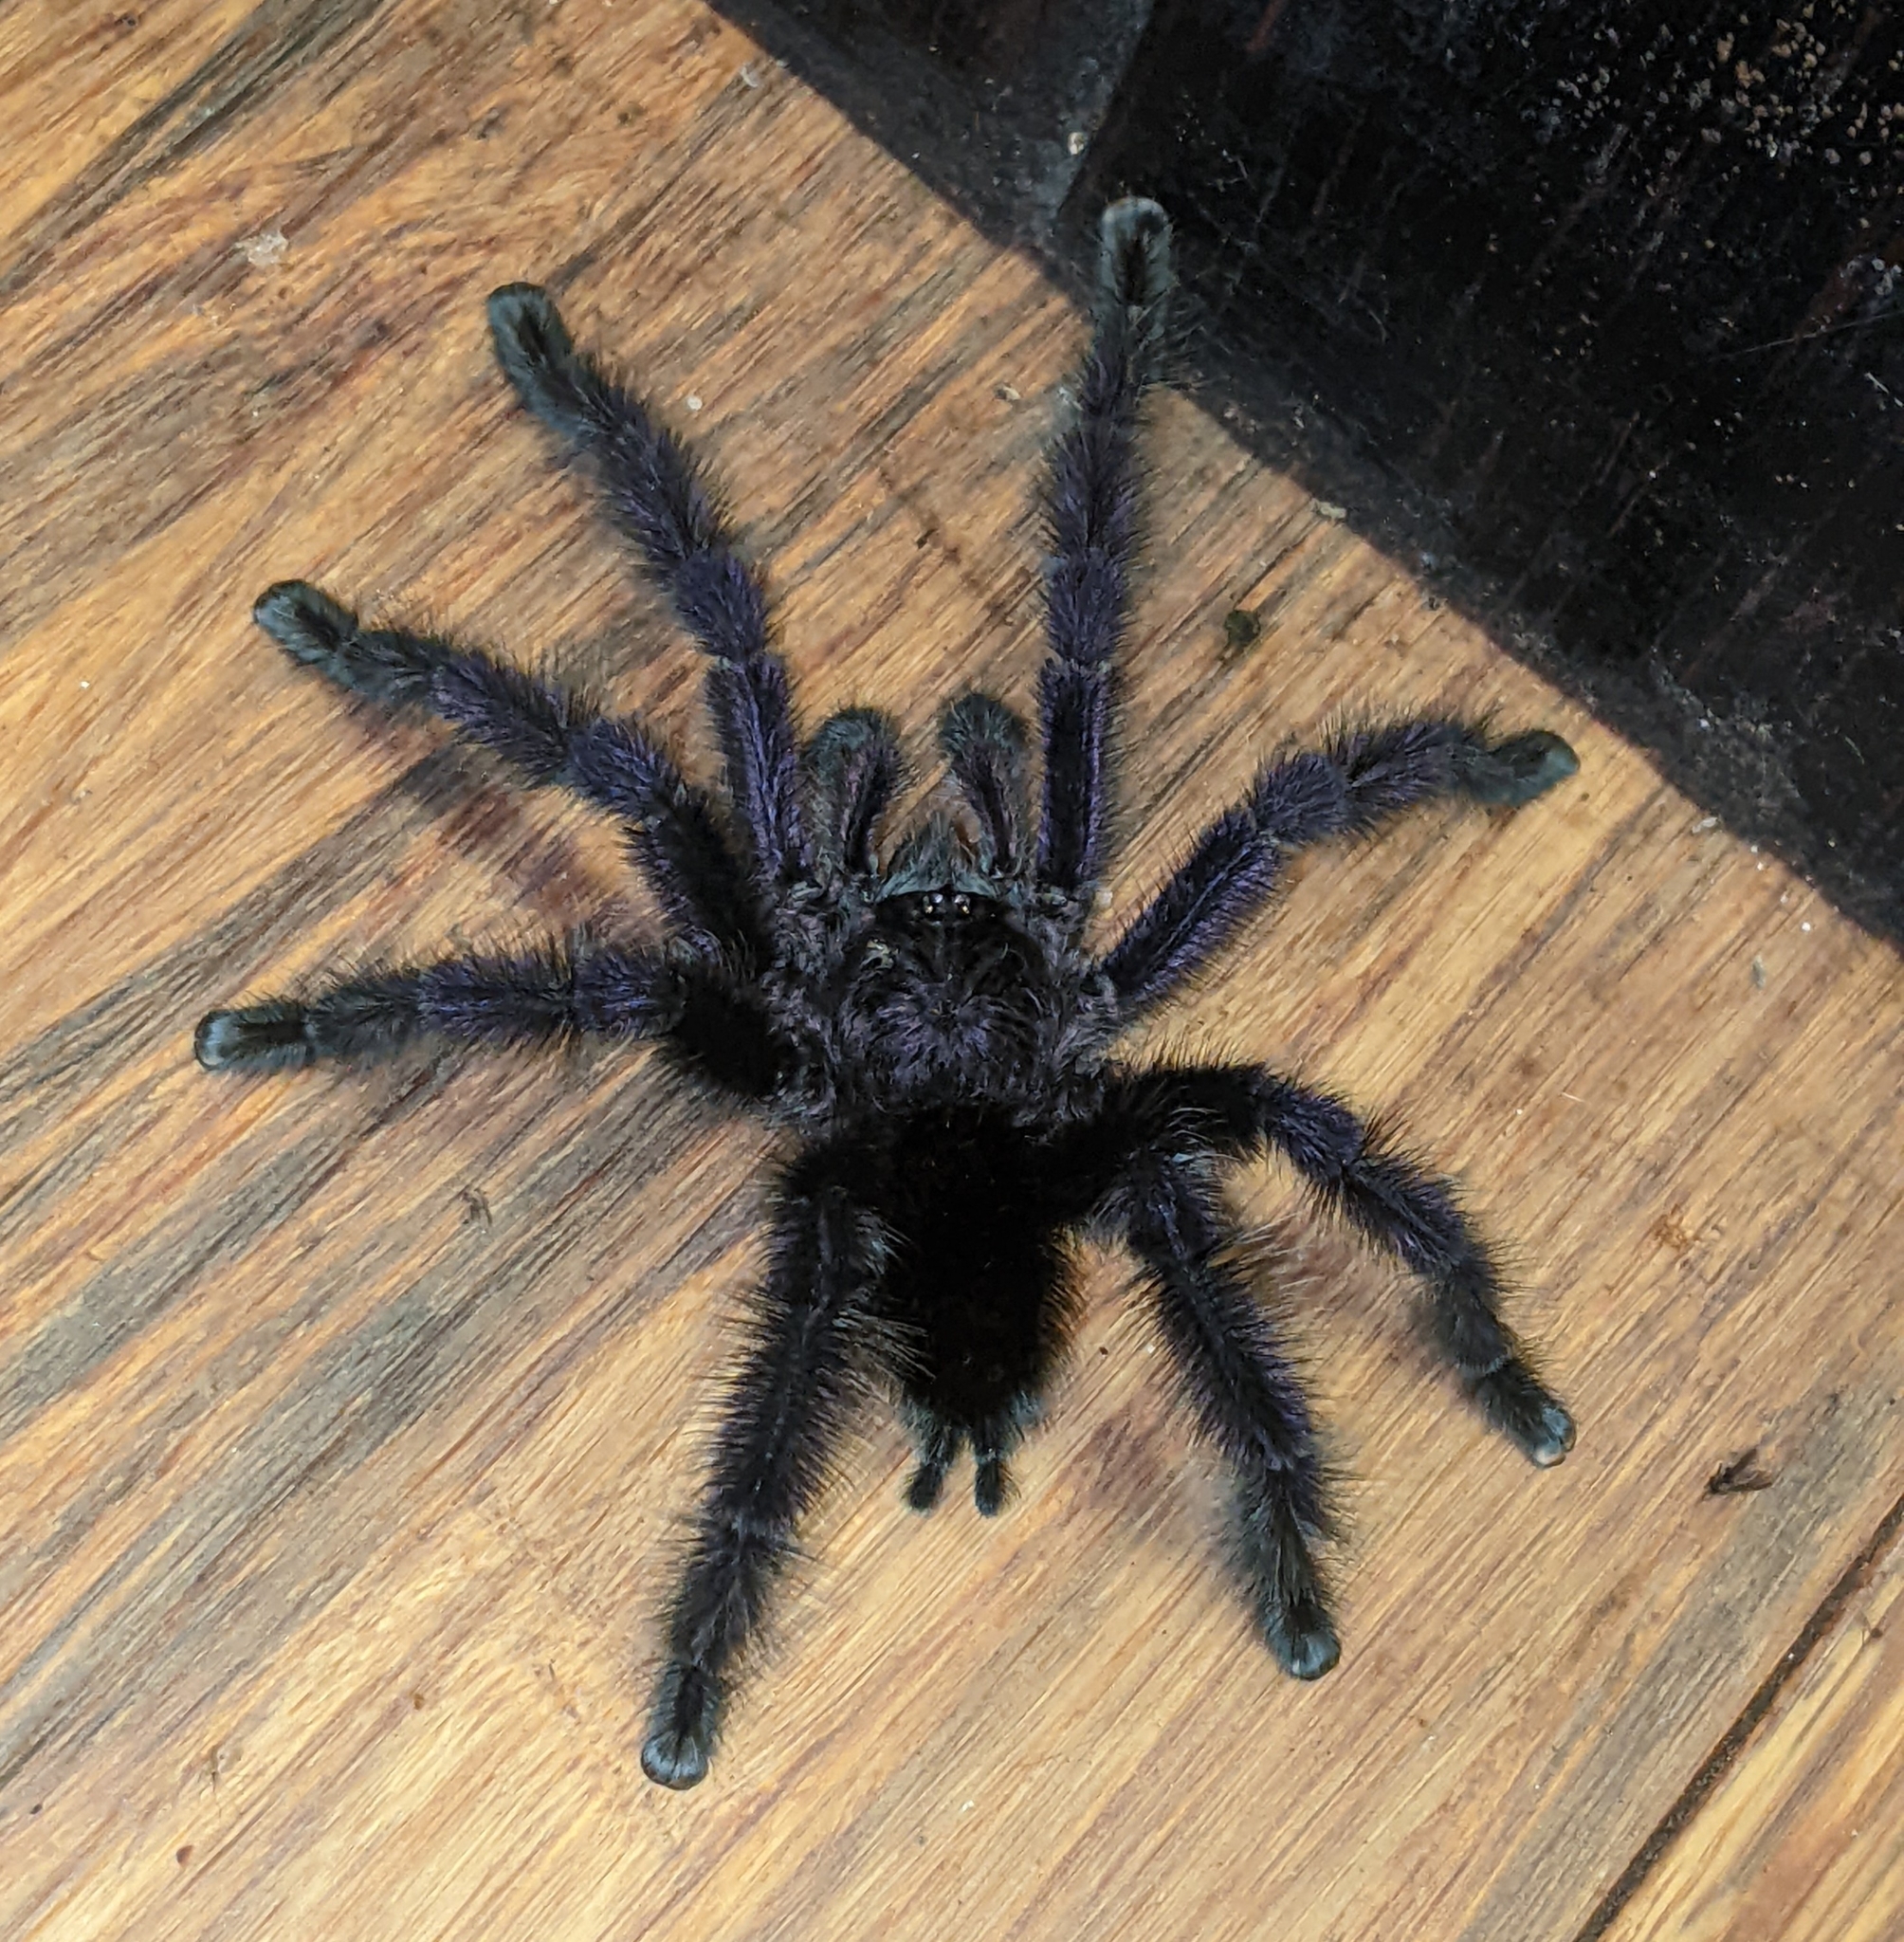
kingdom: Animalia
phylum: Arthropoda
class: Arachnida
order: Araneae
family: Theraphosidae
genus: Avicularia
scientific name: Avicularia purpurea
